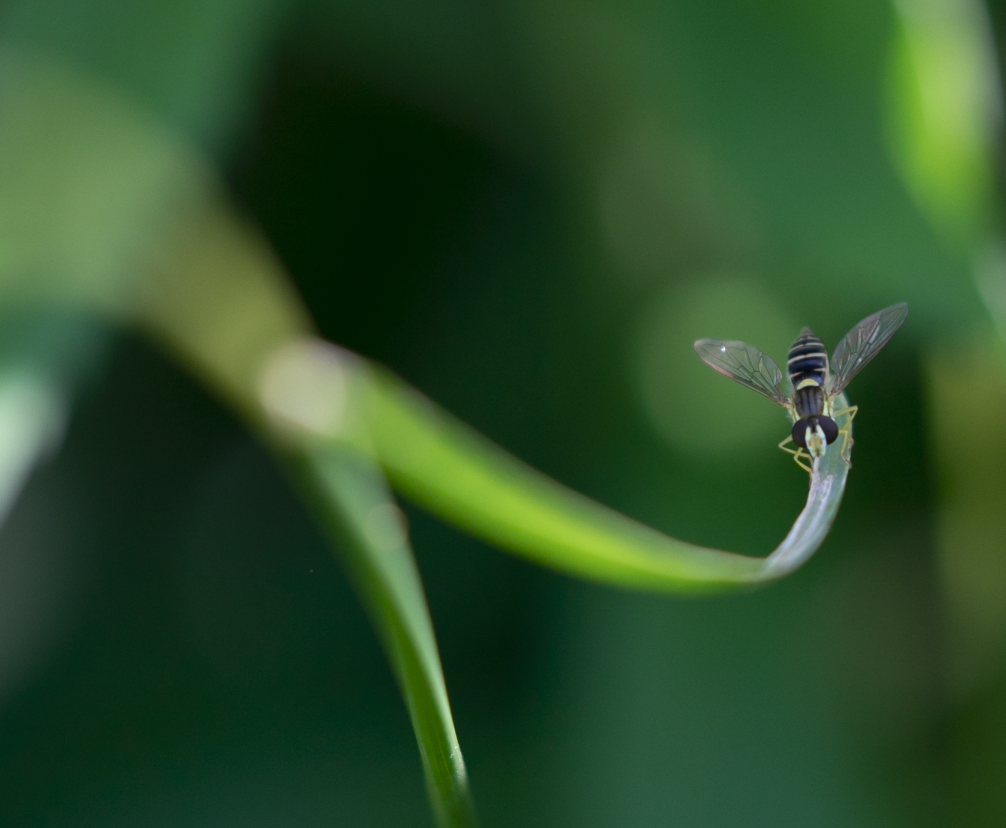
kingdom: Animalia
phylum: Arthropoda
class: Insecta
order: Diptera
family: Syrphidae
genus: Sphaerophoria
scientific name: Sphaerophoria
